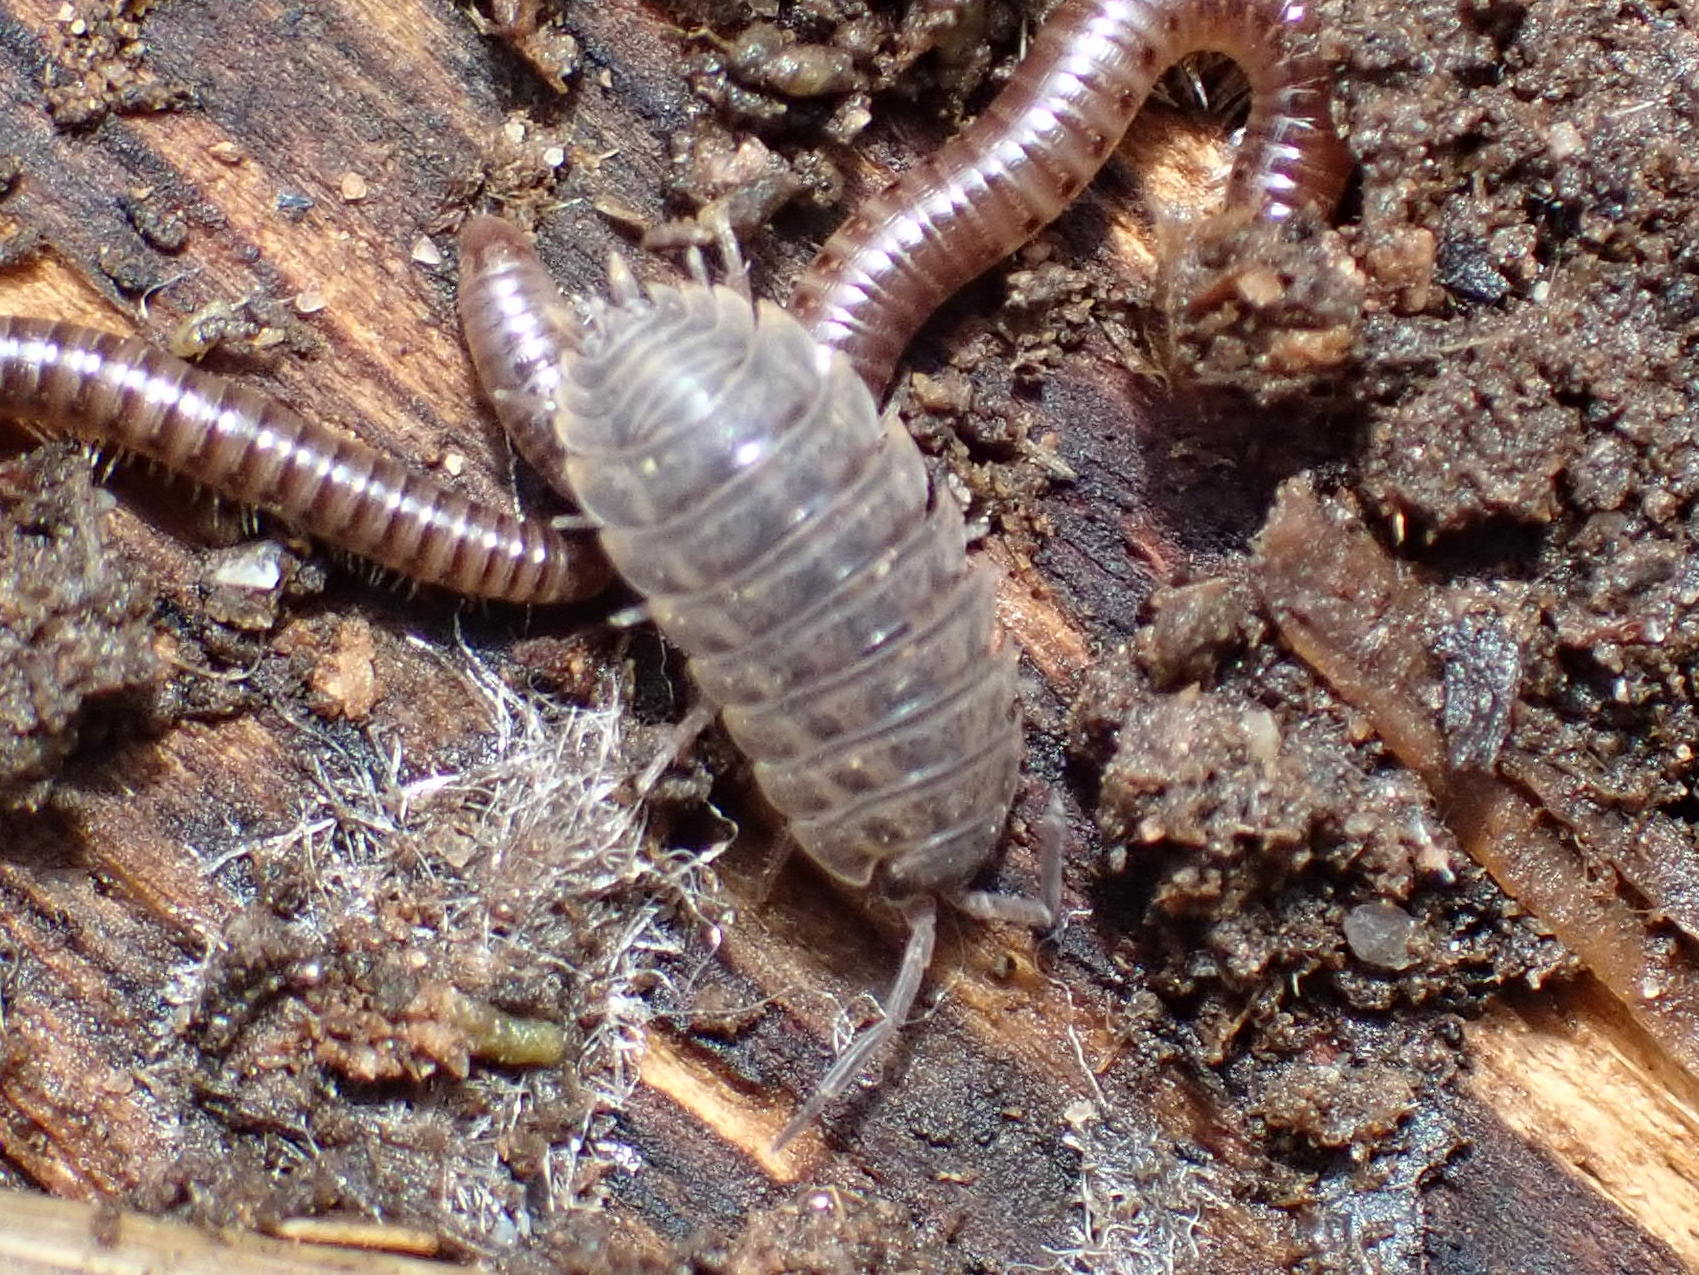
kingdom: Animalia
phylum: Arthropoda
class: Malacostraca
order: Isopoda
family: Trachelipodidae
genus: Trachelipus
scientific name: Trachelipus rathkii
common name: Isopod
